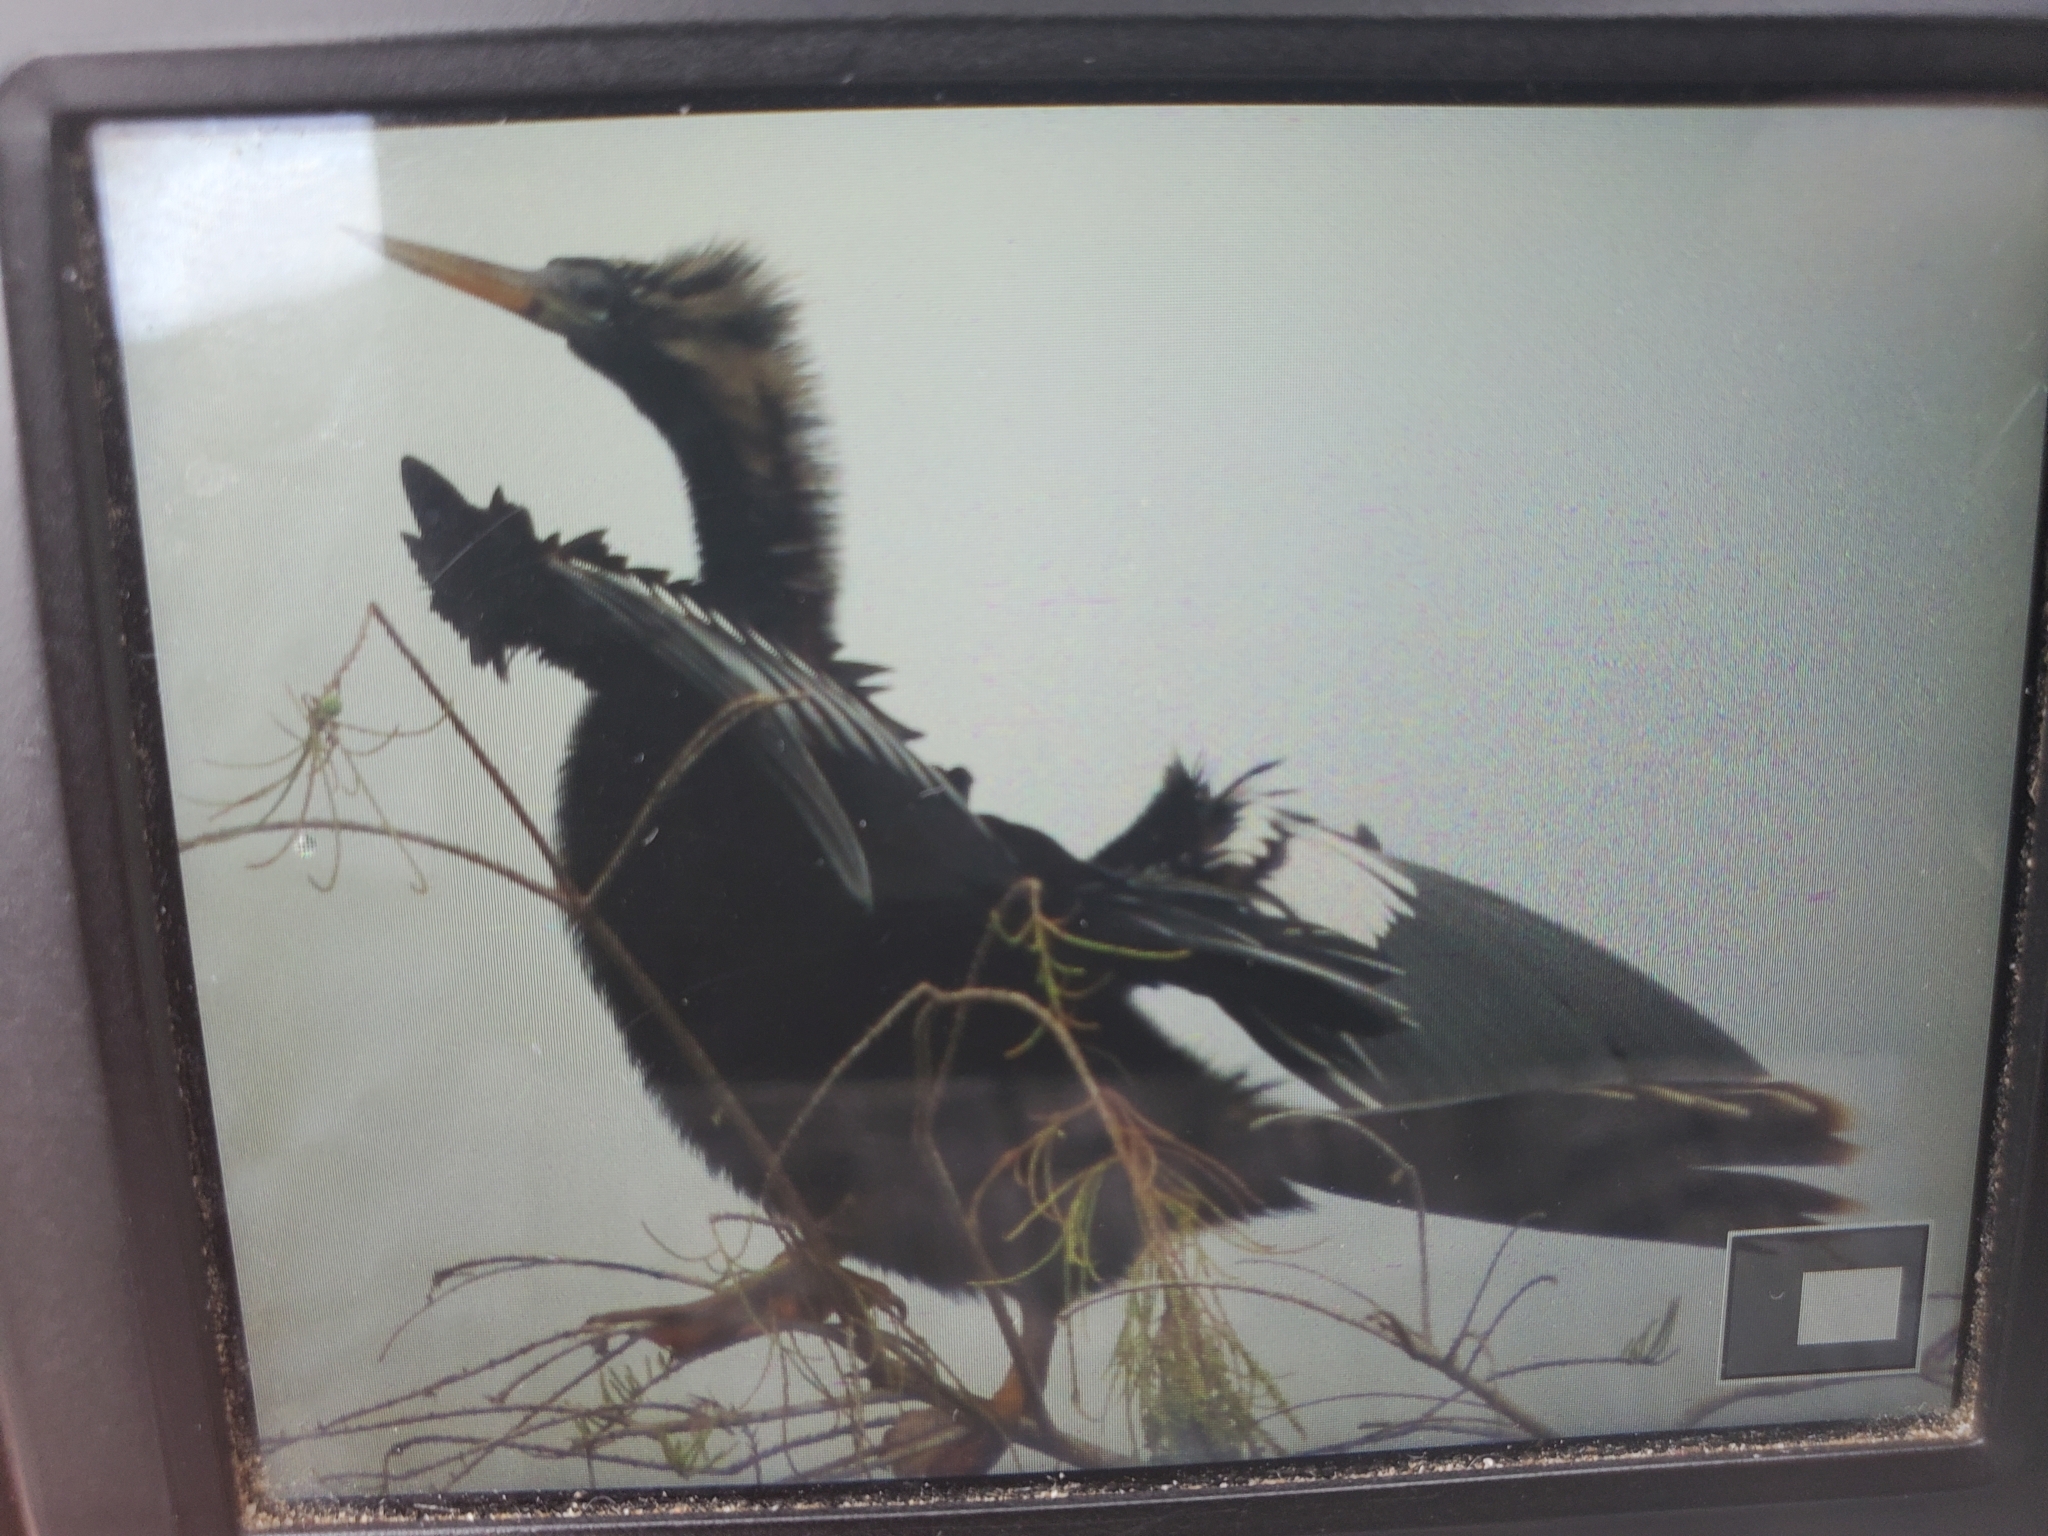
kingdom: Animalia
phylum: Chordata
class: Aves
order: Suliformes
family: Anhingidae
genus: Anhinga
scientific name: Anhinga anhinga
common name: Anhinga
